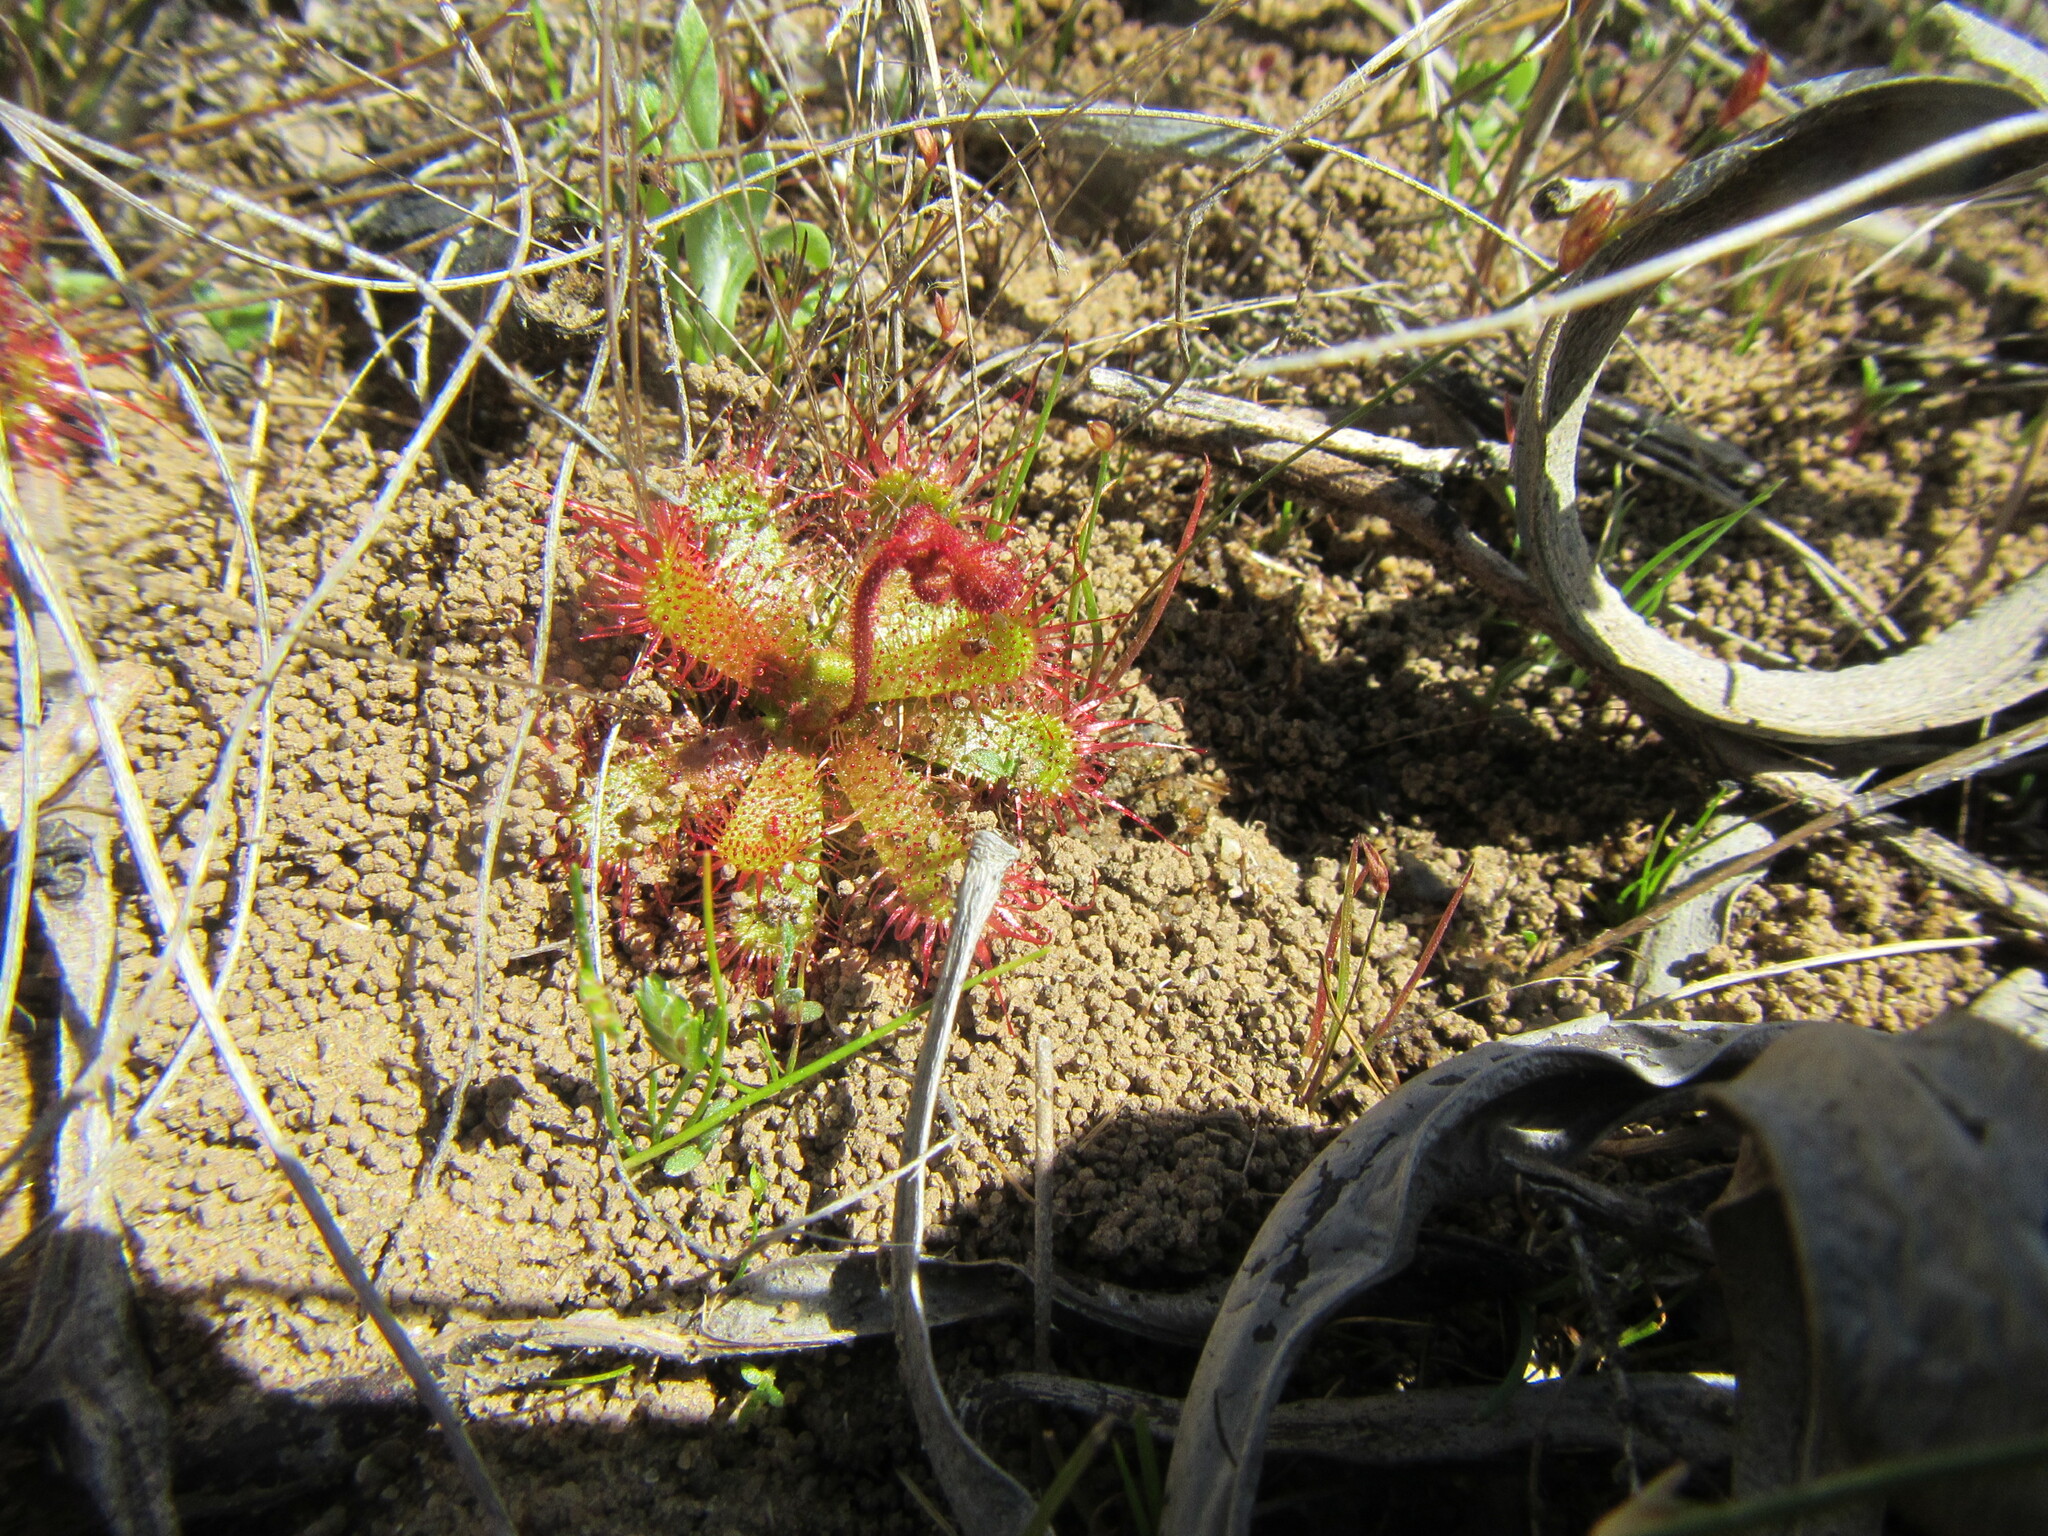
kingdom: Plantae
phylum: Tracheophyta
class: Magnoliopsida
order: Caryophyllales
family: Droseraceae
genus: Drosera
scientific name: Drosera trinervia
